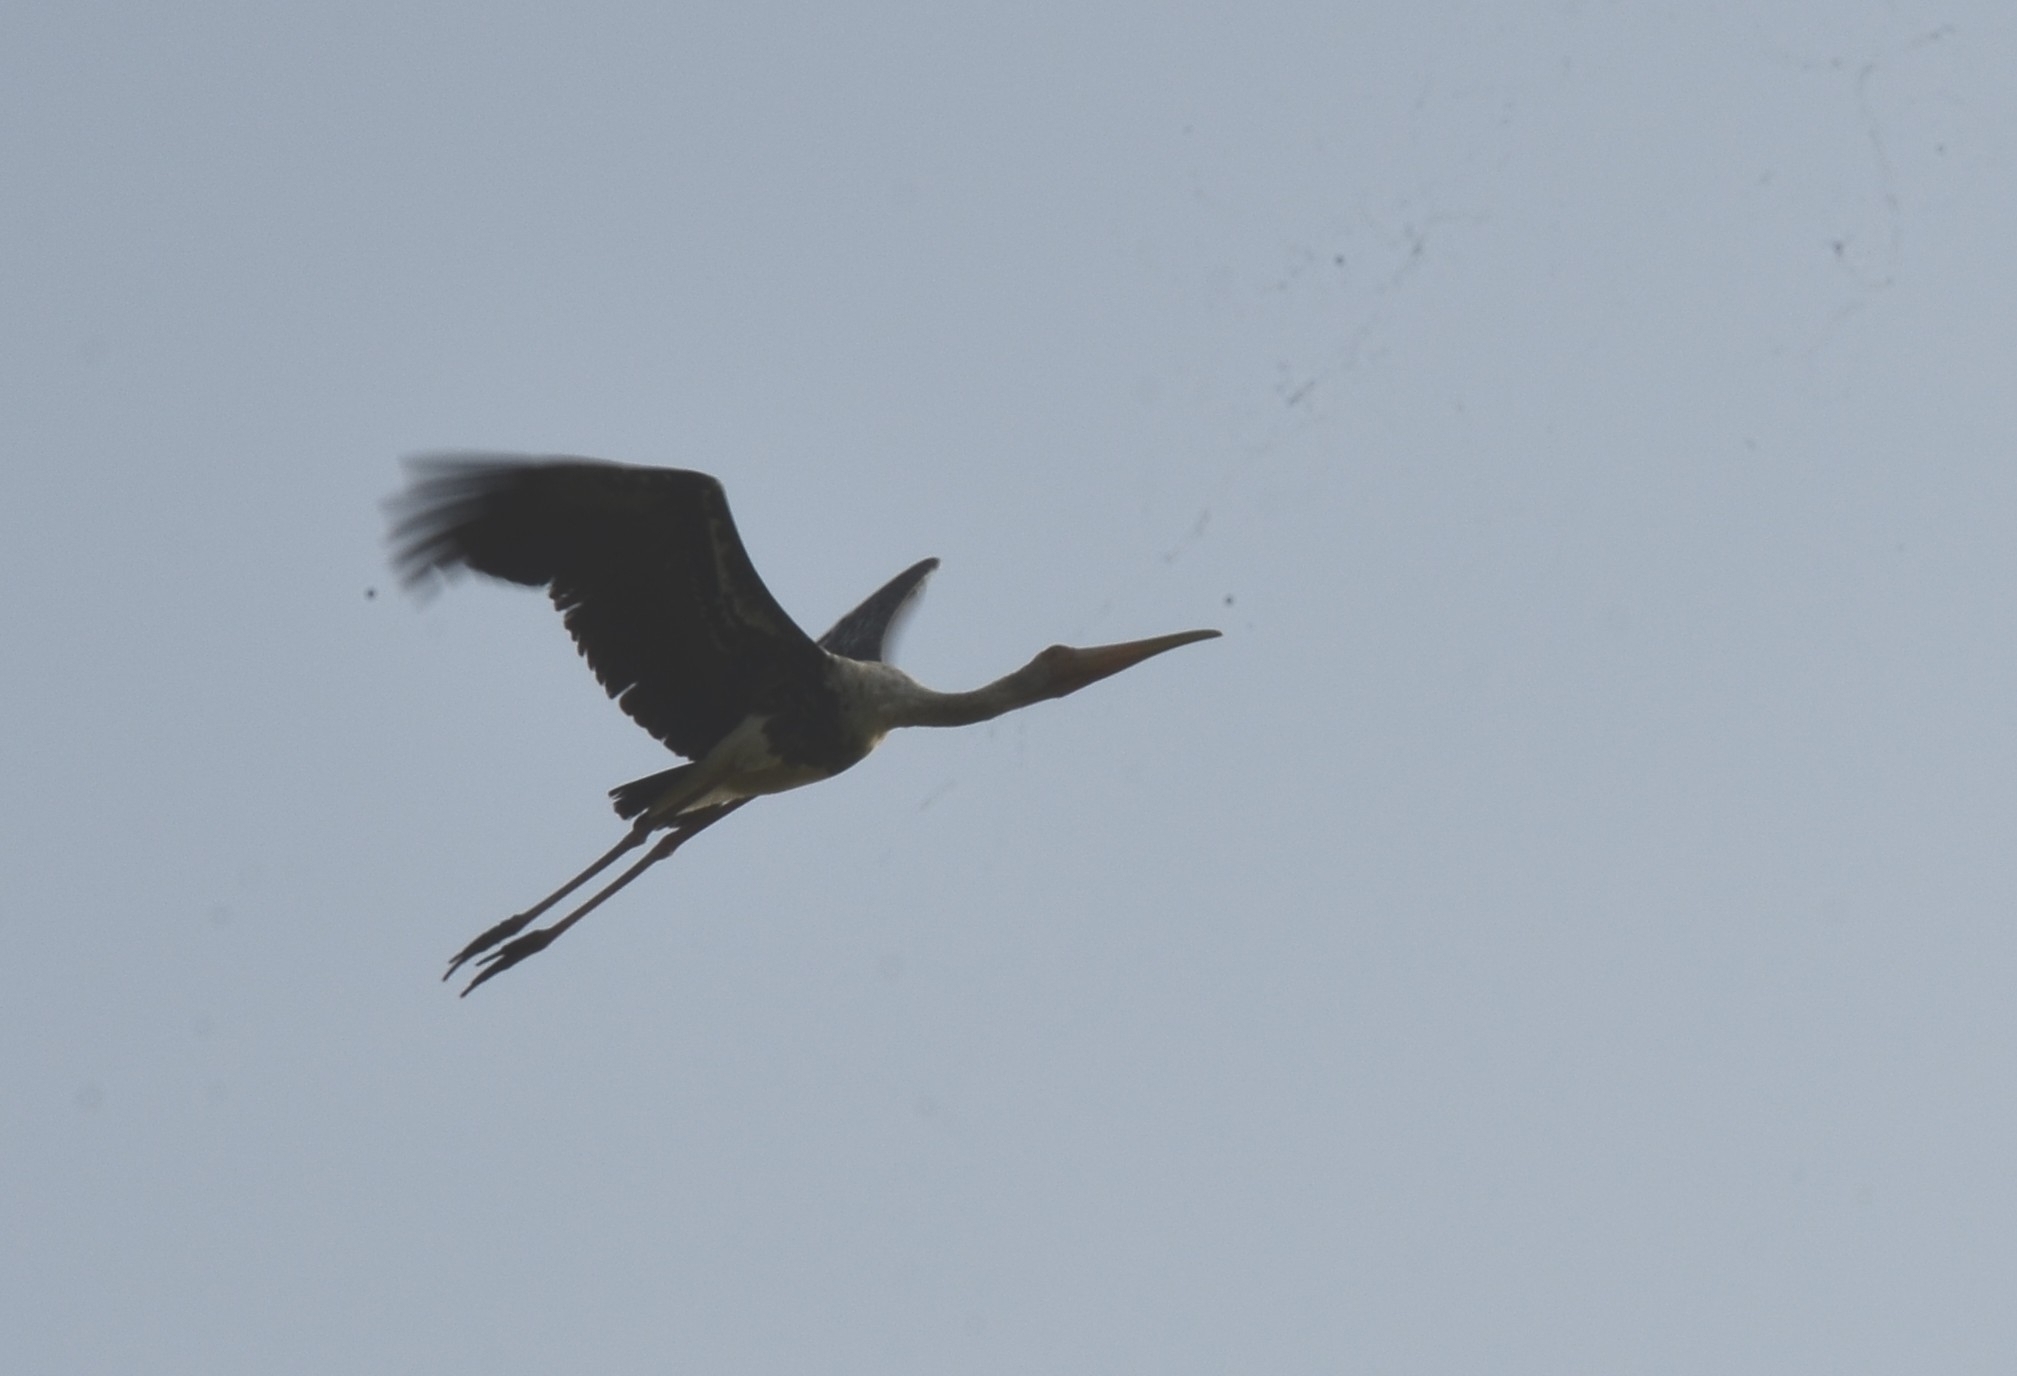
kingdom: Animalia
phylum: Chordata
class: Aves
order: Ciconiiformes
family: Ciconiidae
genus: Mycteria
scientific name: Mycteria leucocephala
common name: Painted stork
